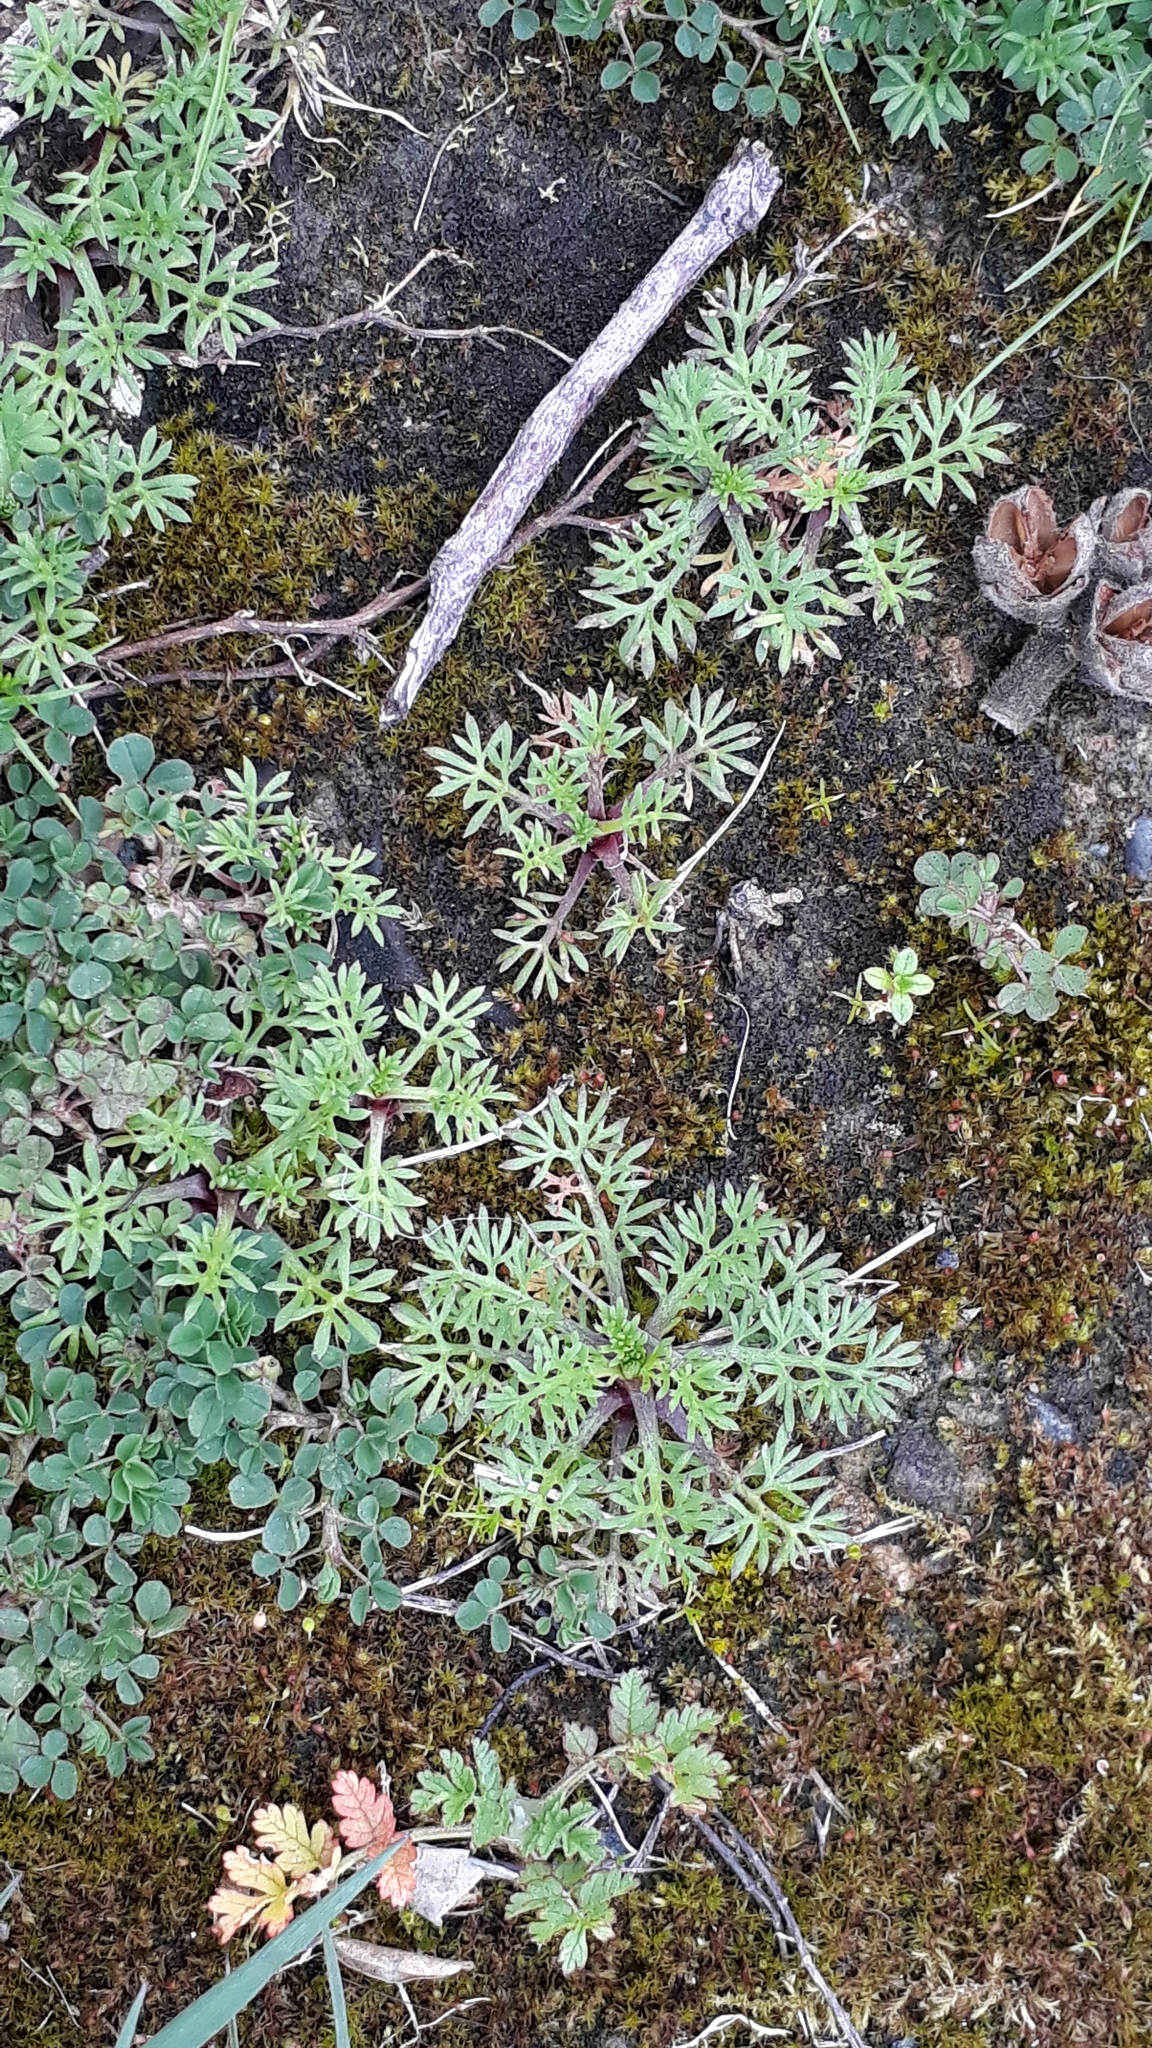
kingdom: Plantae
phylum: Tracheophyta
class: Magnoliopsida
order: Asterales
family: Asteraceae
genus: Soliva
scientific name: Soliva sessilis
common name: Field burrweed
